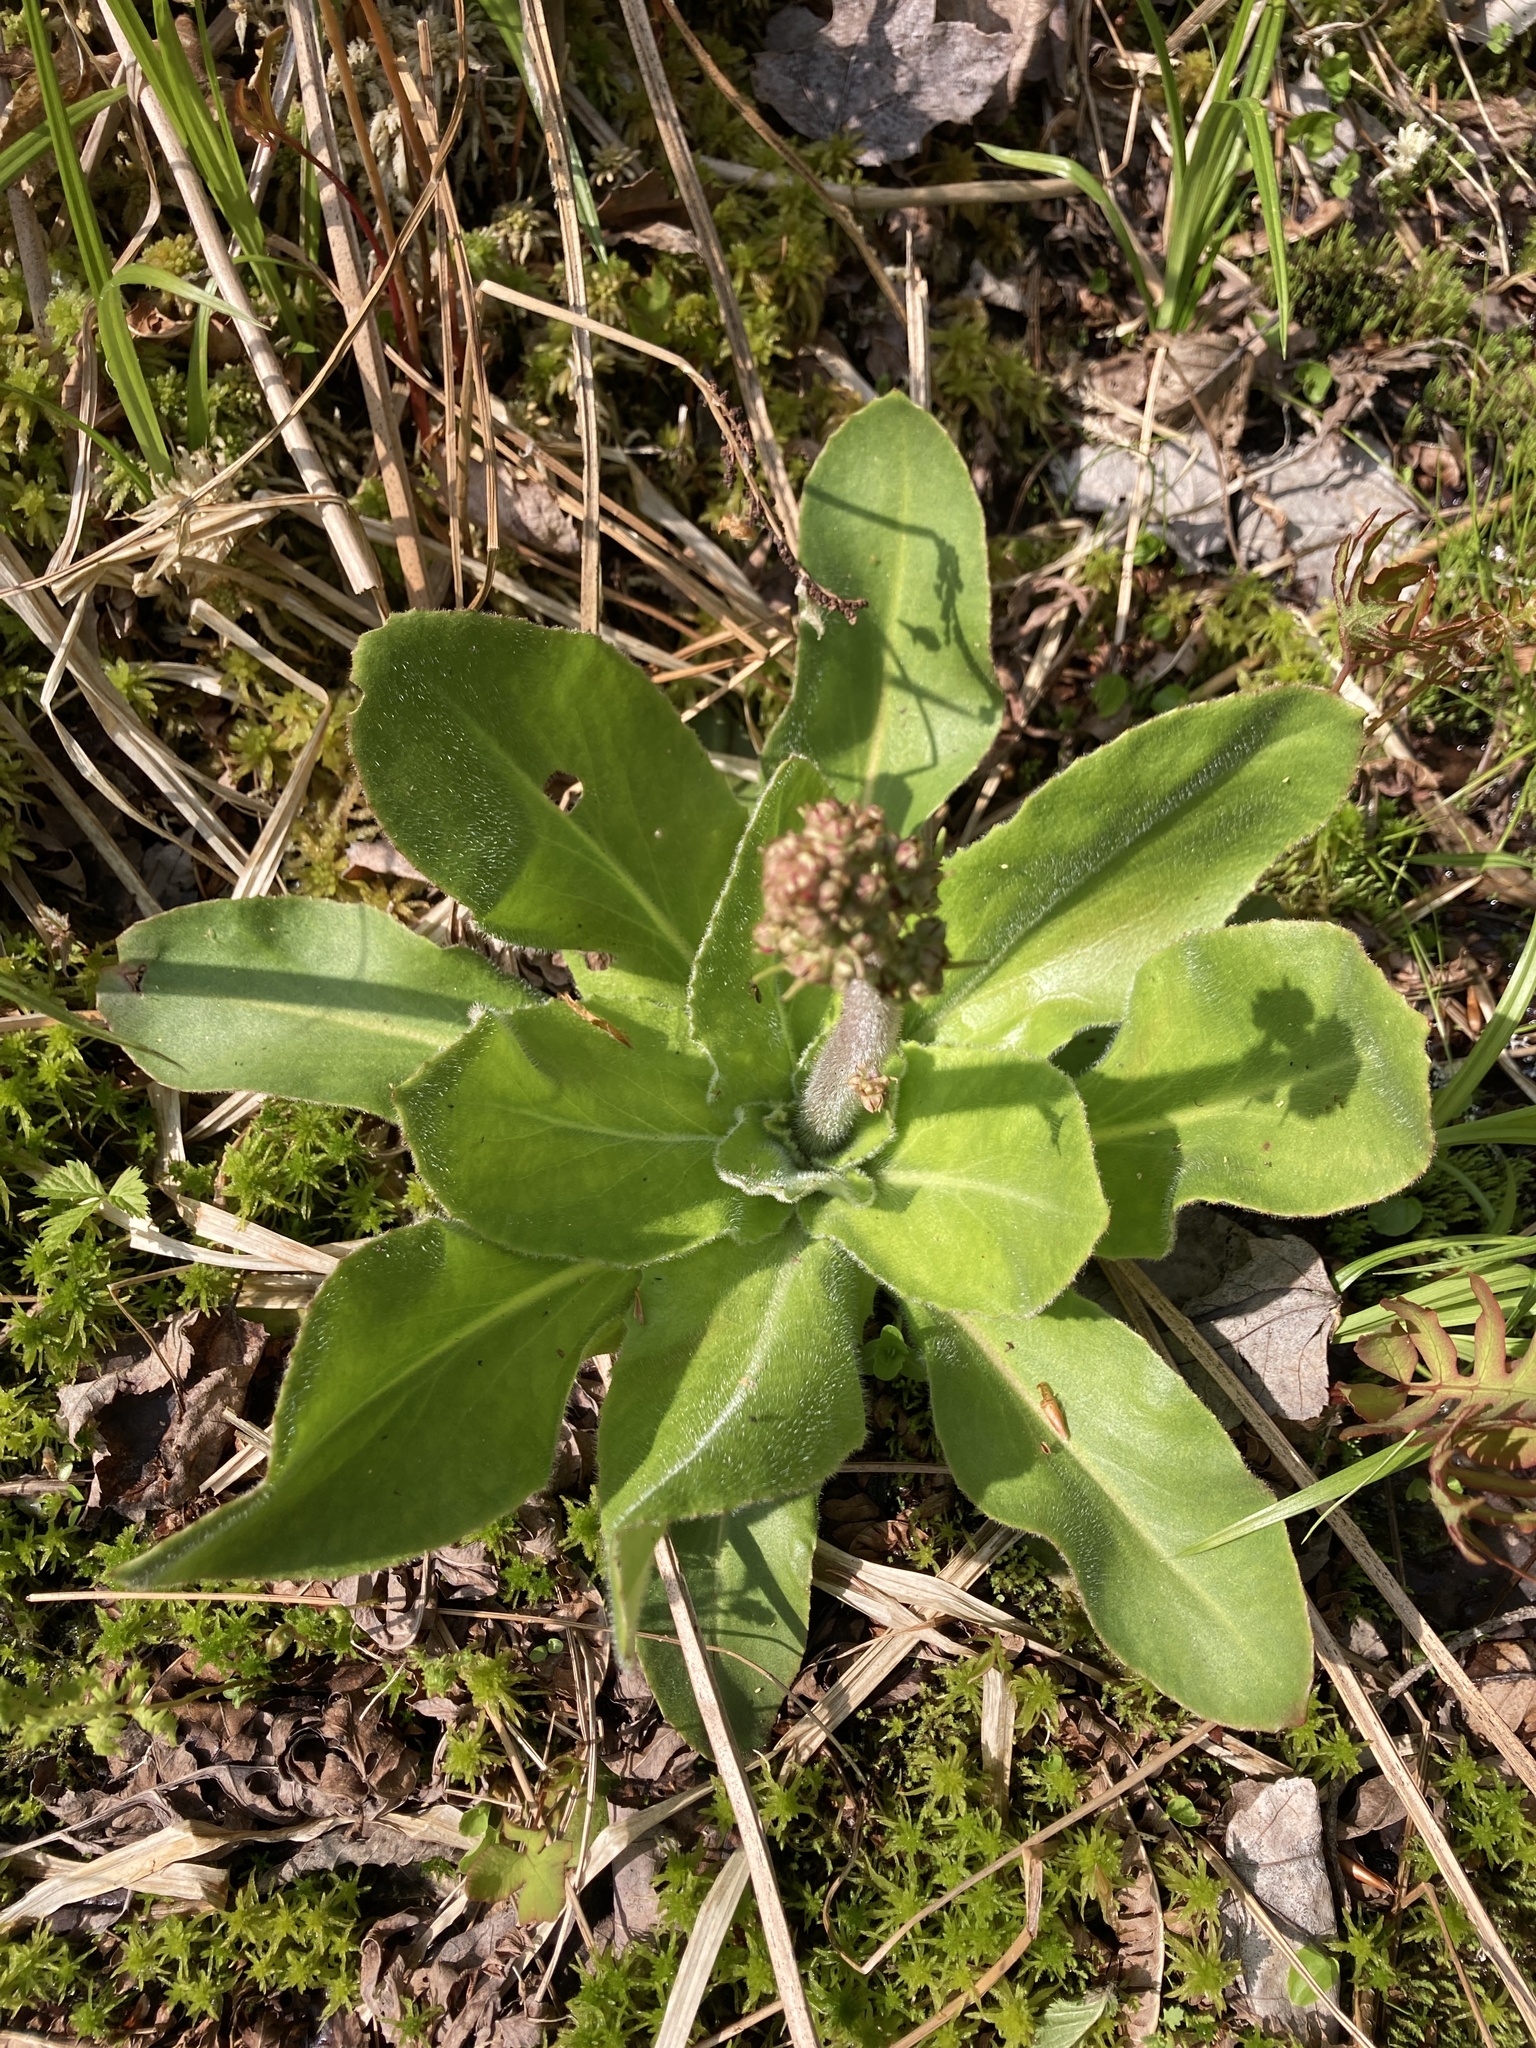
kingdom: Plantae
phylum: Tracheophyta
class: Magnoliopsida
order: Saxifragales
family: Saxifragaceae
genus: Micranthes
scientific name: Micranthes pensylvanica
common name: Marsh saxifrage
